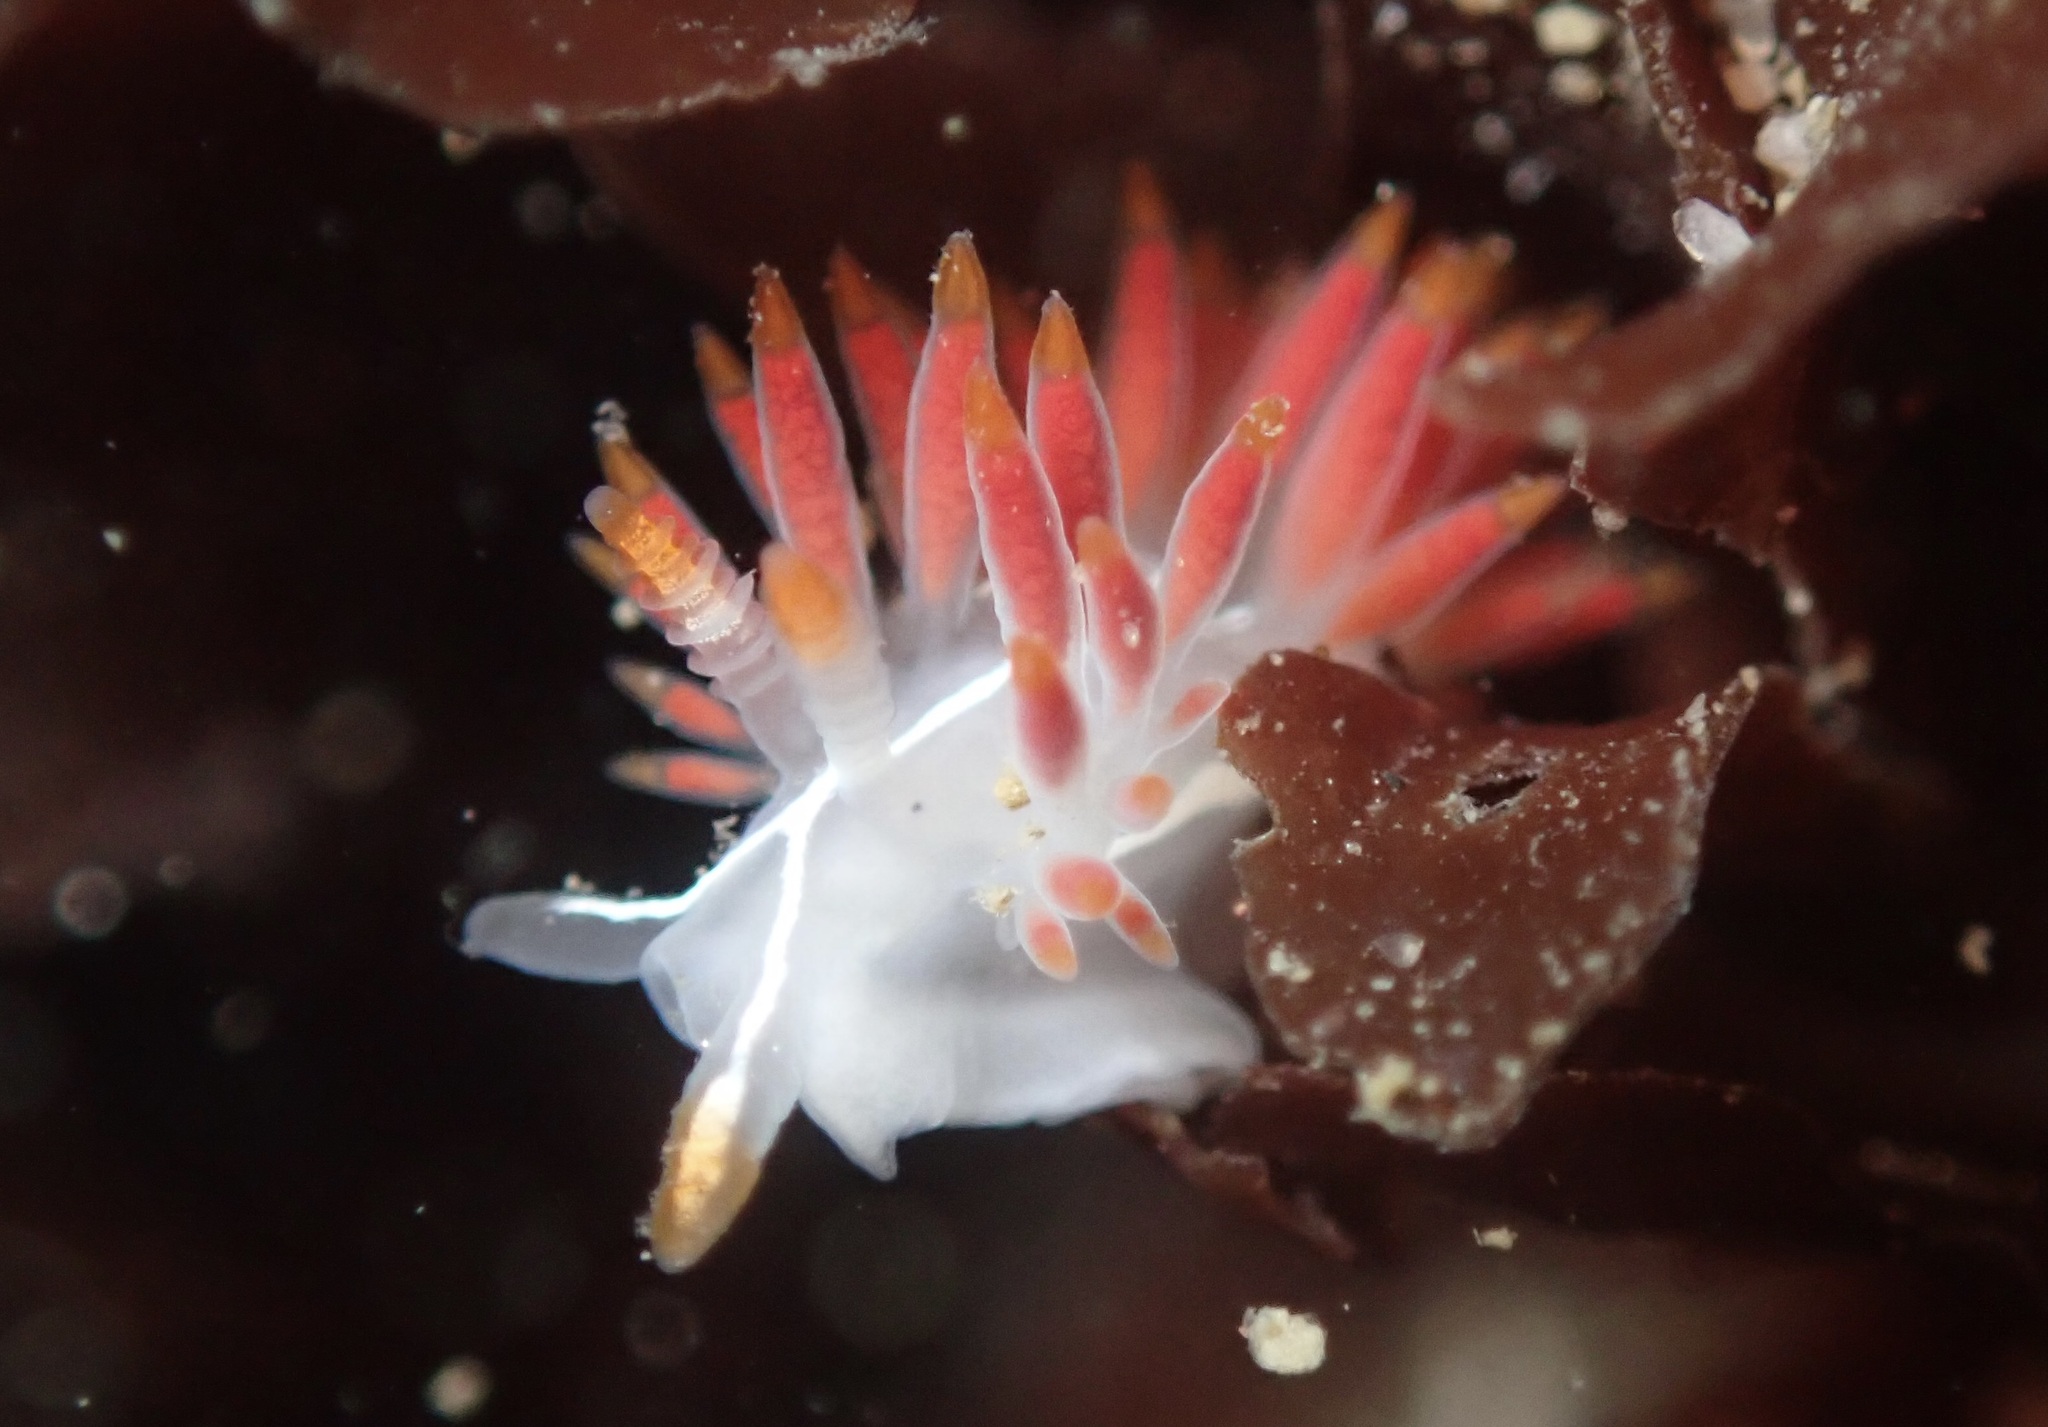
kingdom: Animalia
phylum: Mollusca
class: Gastropoda
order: Nudibranchia
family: Coryphellidae
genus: Coryphella
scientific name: Coryphella trilineata
